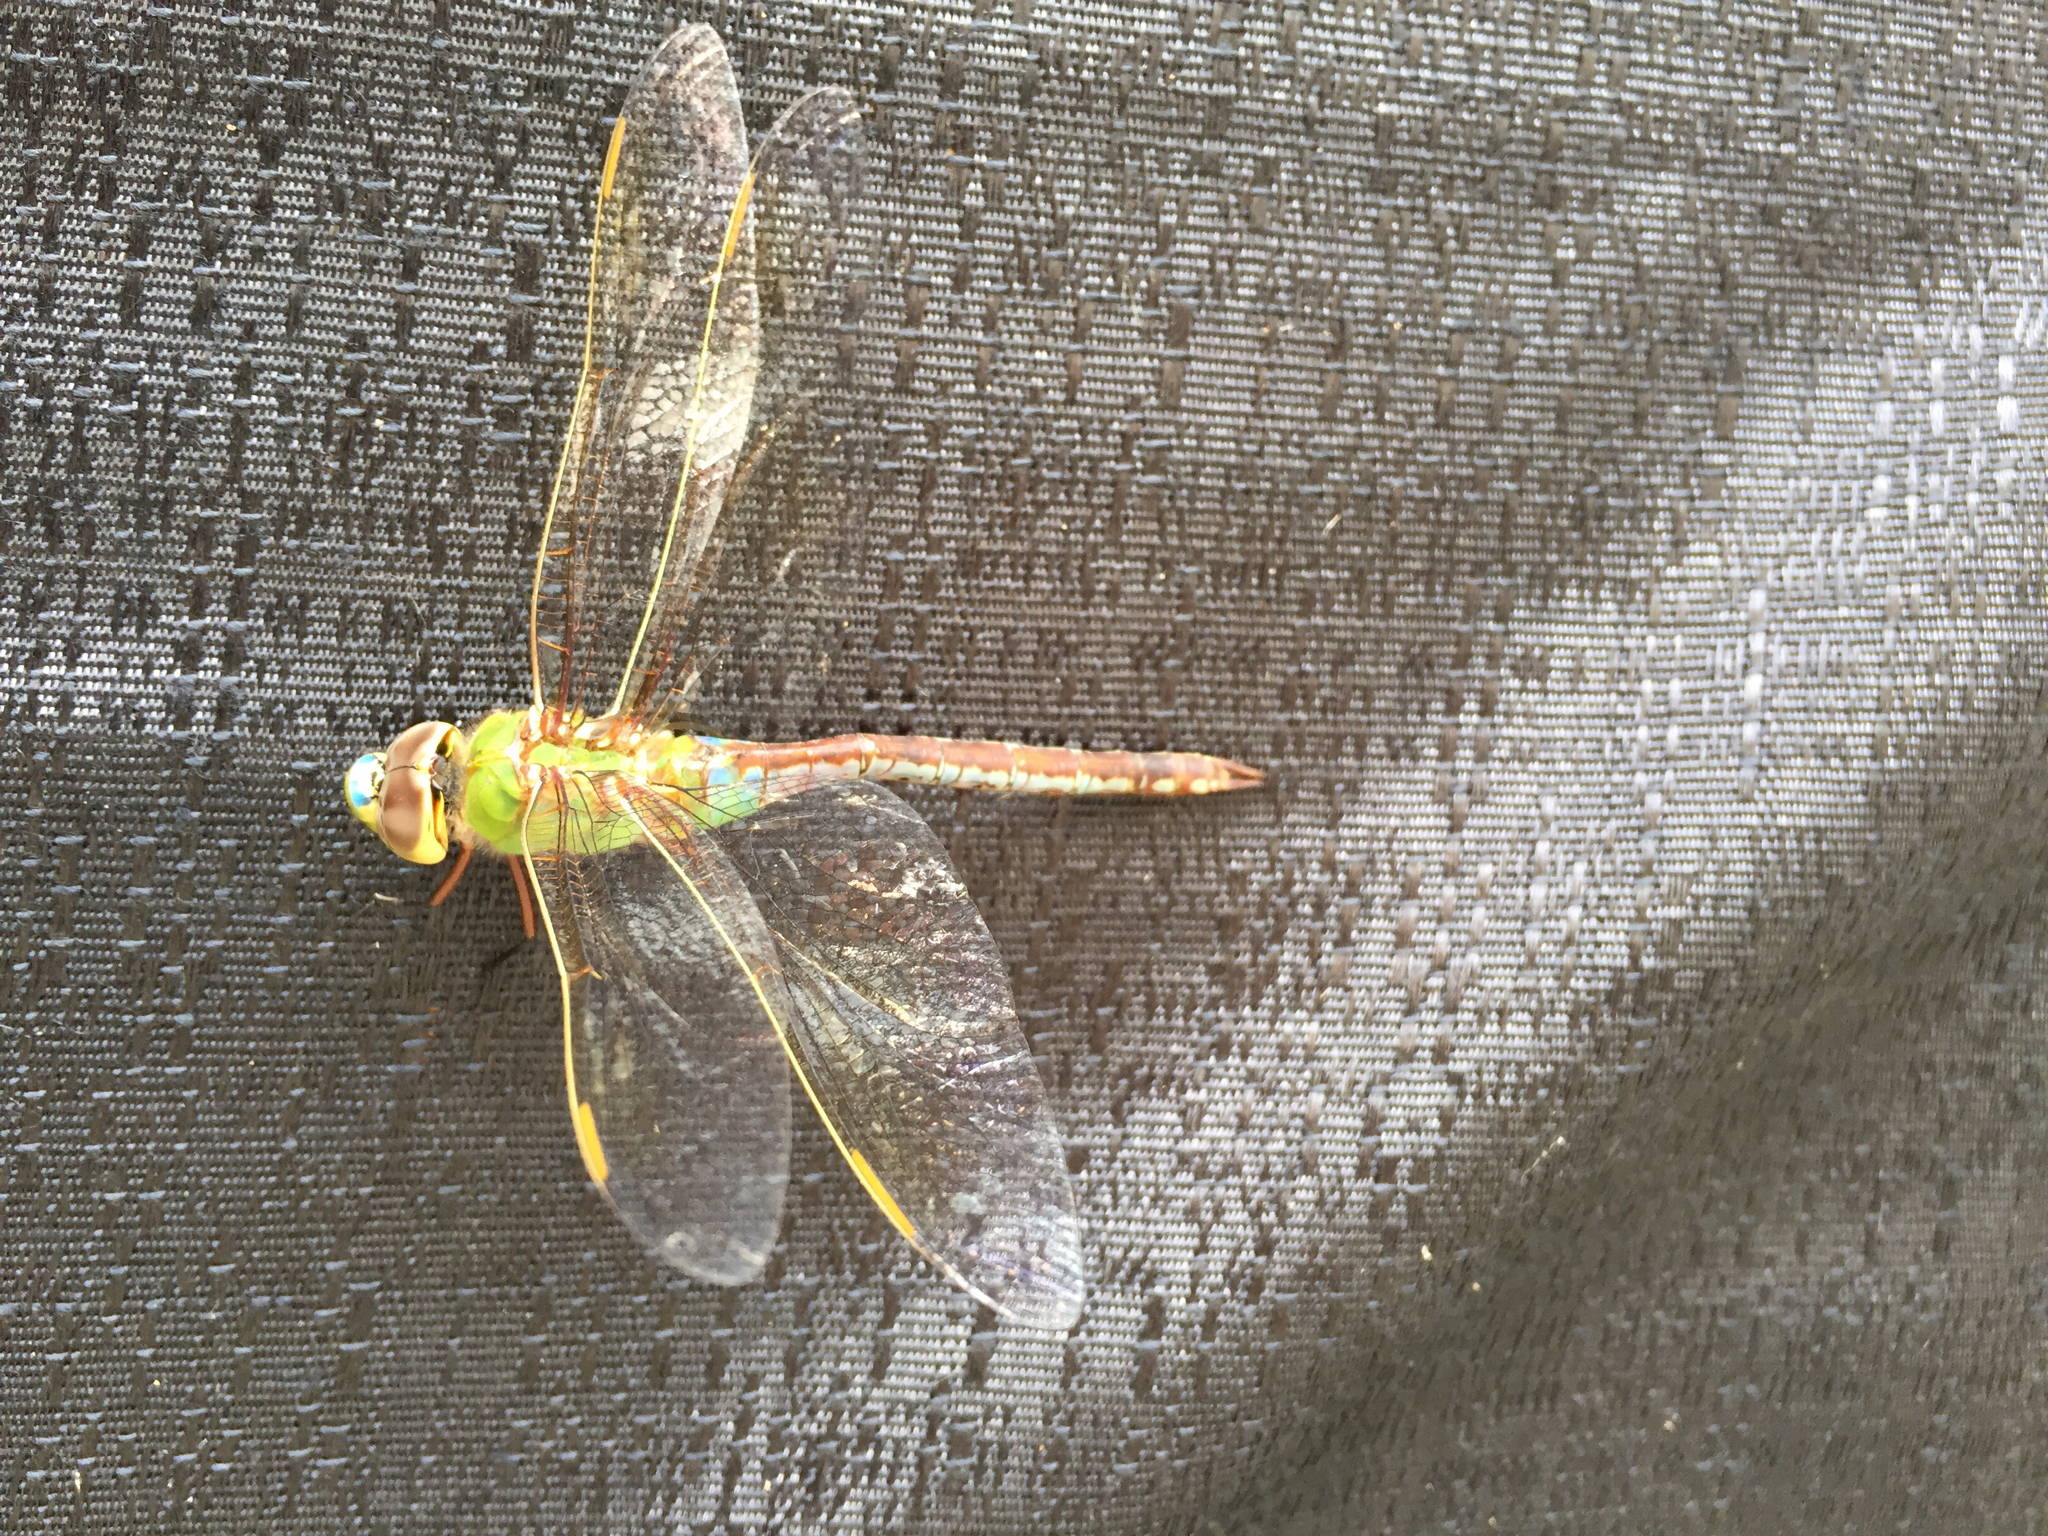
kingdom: Animalia
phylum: Arthropoda
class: Insecta
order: Odonata
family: Aeshnidae
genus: Anax
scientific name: Anax junius
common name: Common green darner
